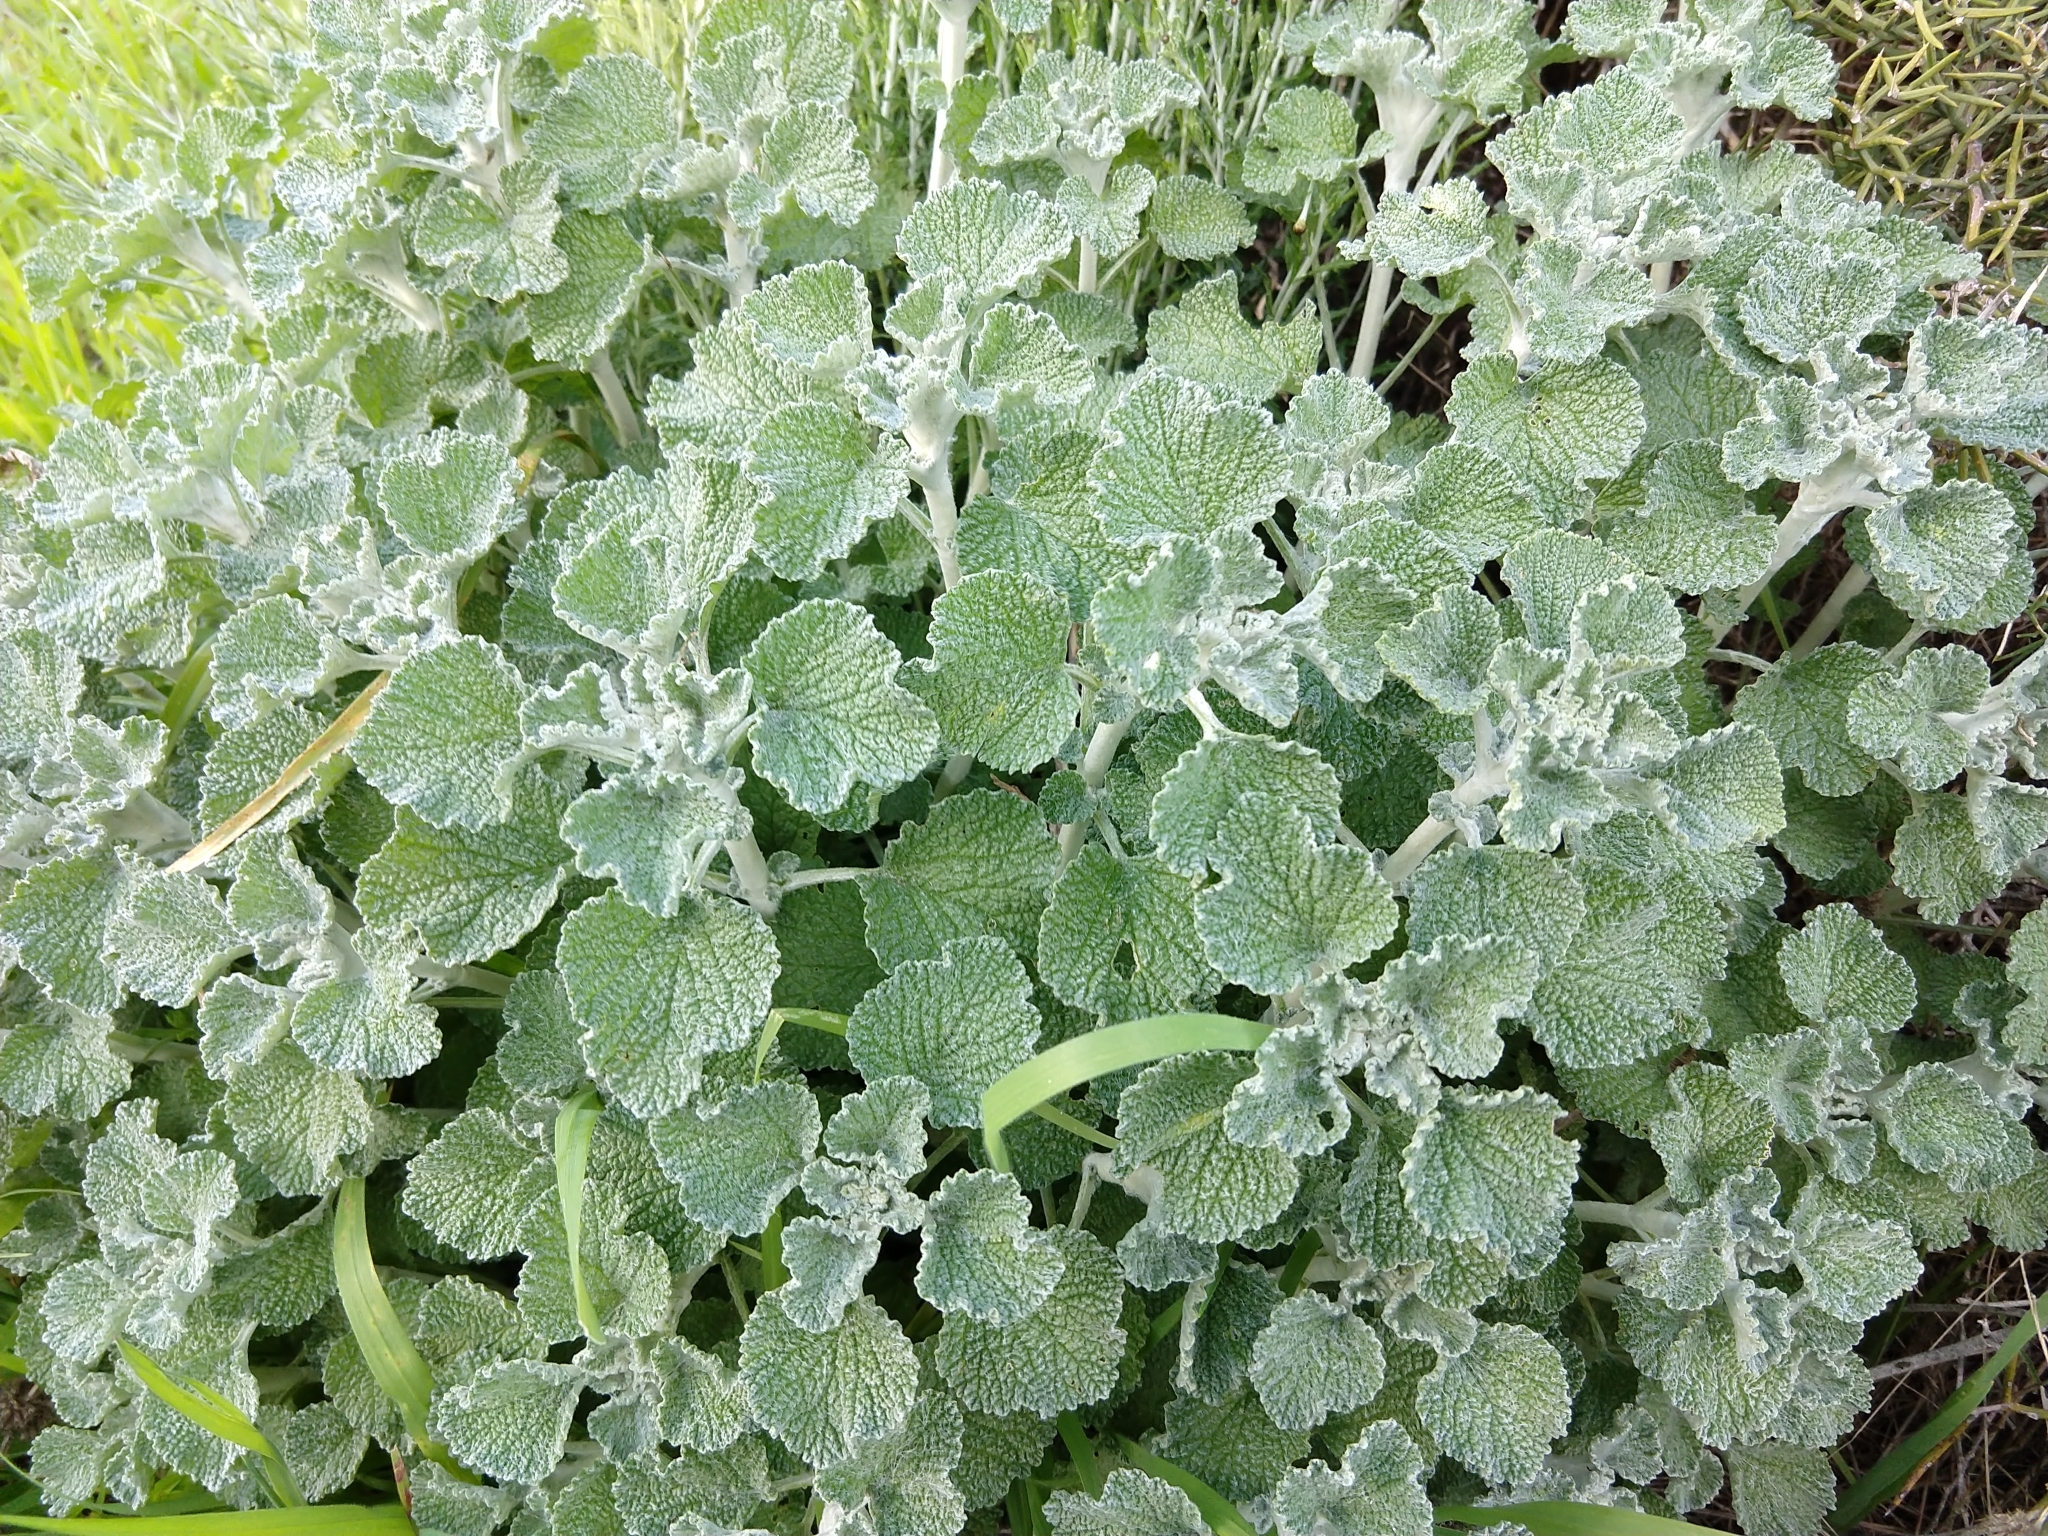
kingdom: Plantae
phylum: Tracheophyta
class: Magnoliopsida
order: Lamiales
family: Lamiaceae
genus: Marrubium
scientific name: Marrubium vulgare
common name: Horehound
